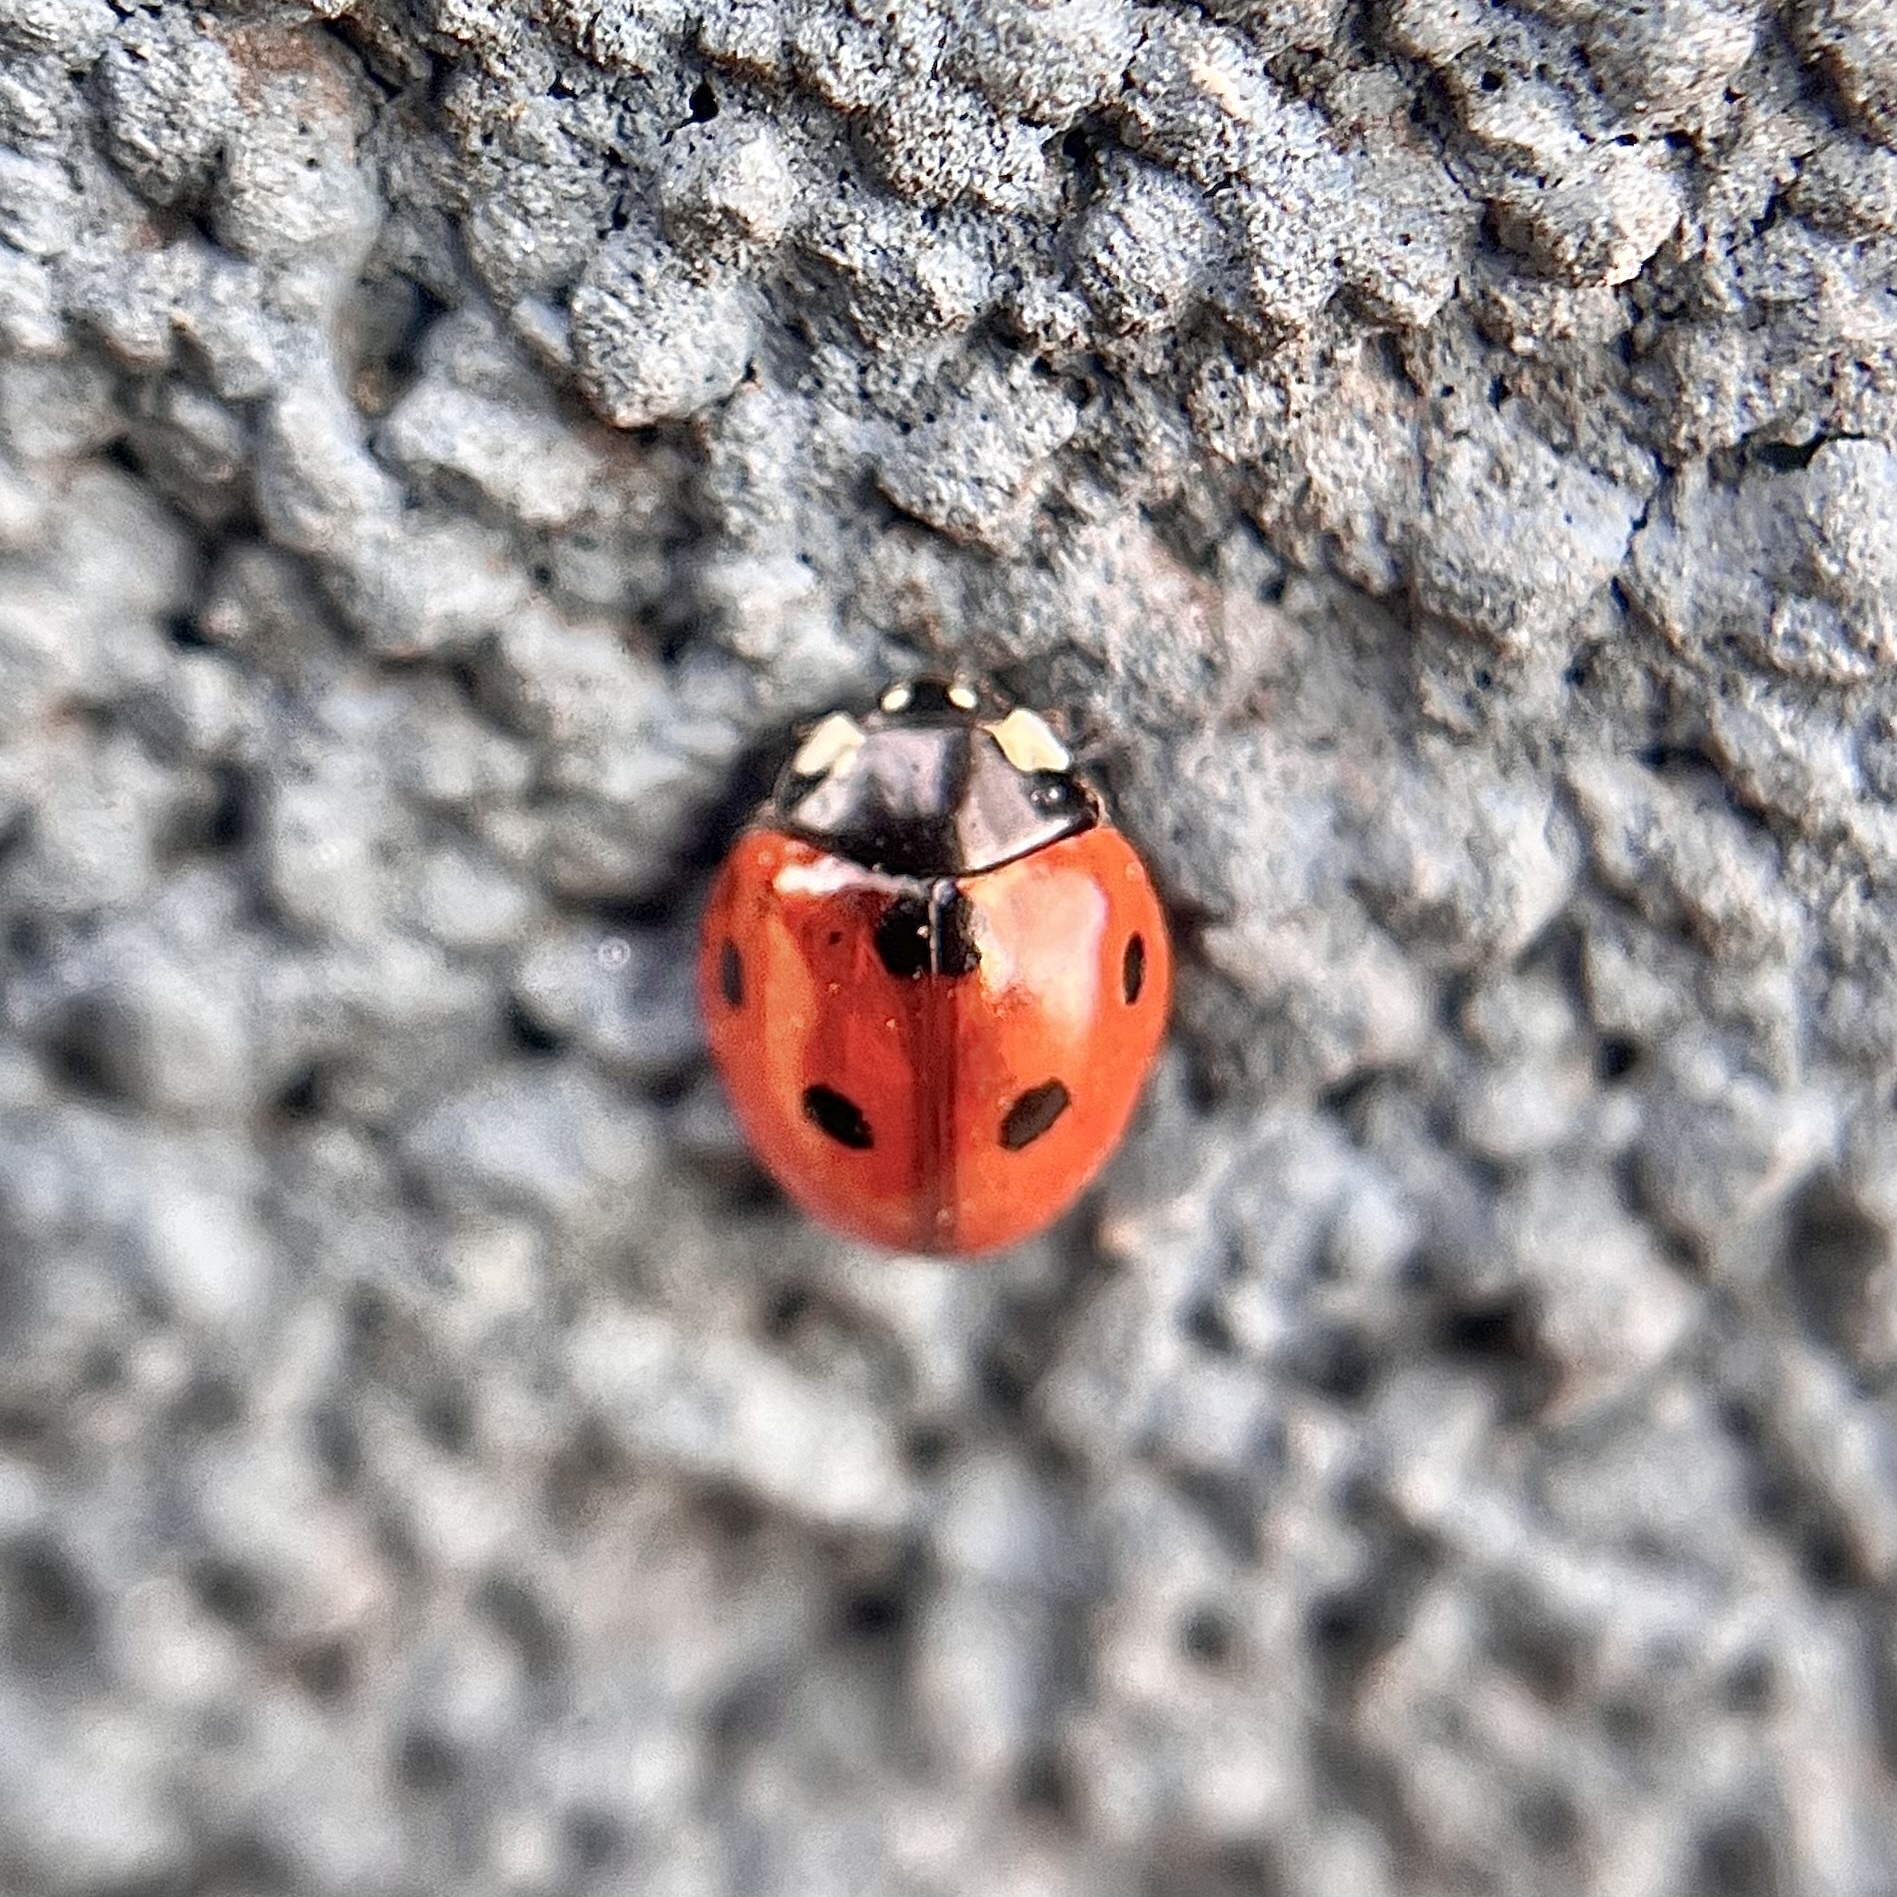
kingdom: Animalia
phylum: Arthropoda
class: Insecta
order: Coleoptera
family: Coccinellidae
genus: Coccinella
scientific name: Coccinella septempunctata
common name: Sevenspotted lady beetle
